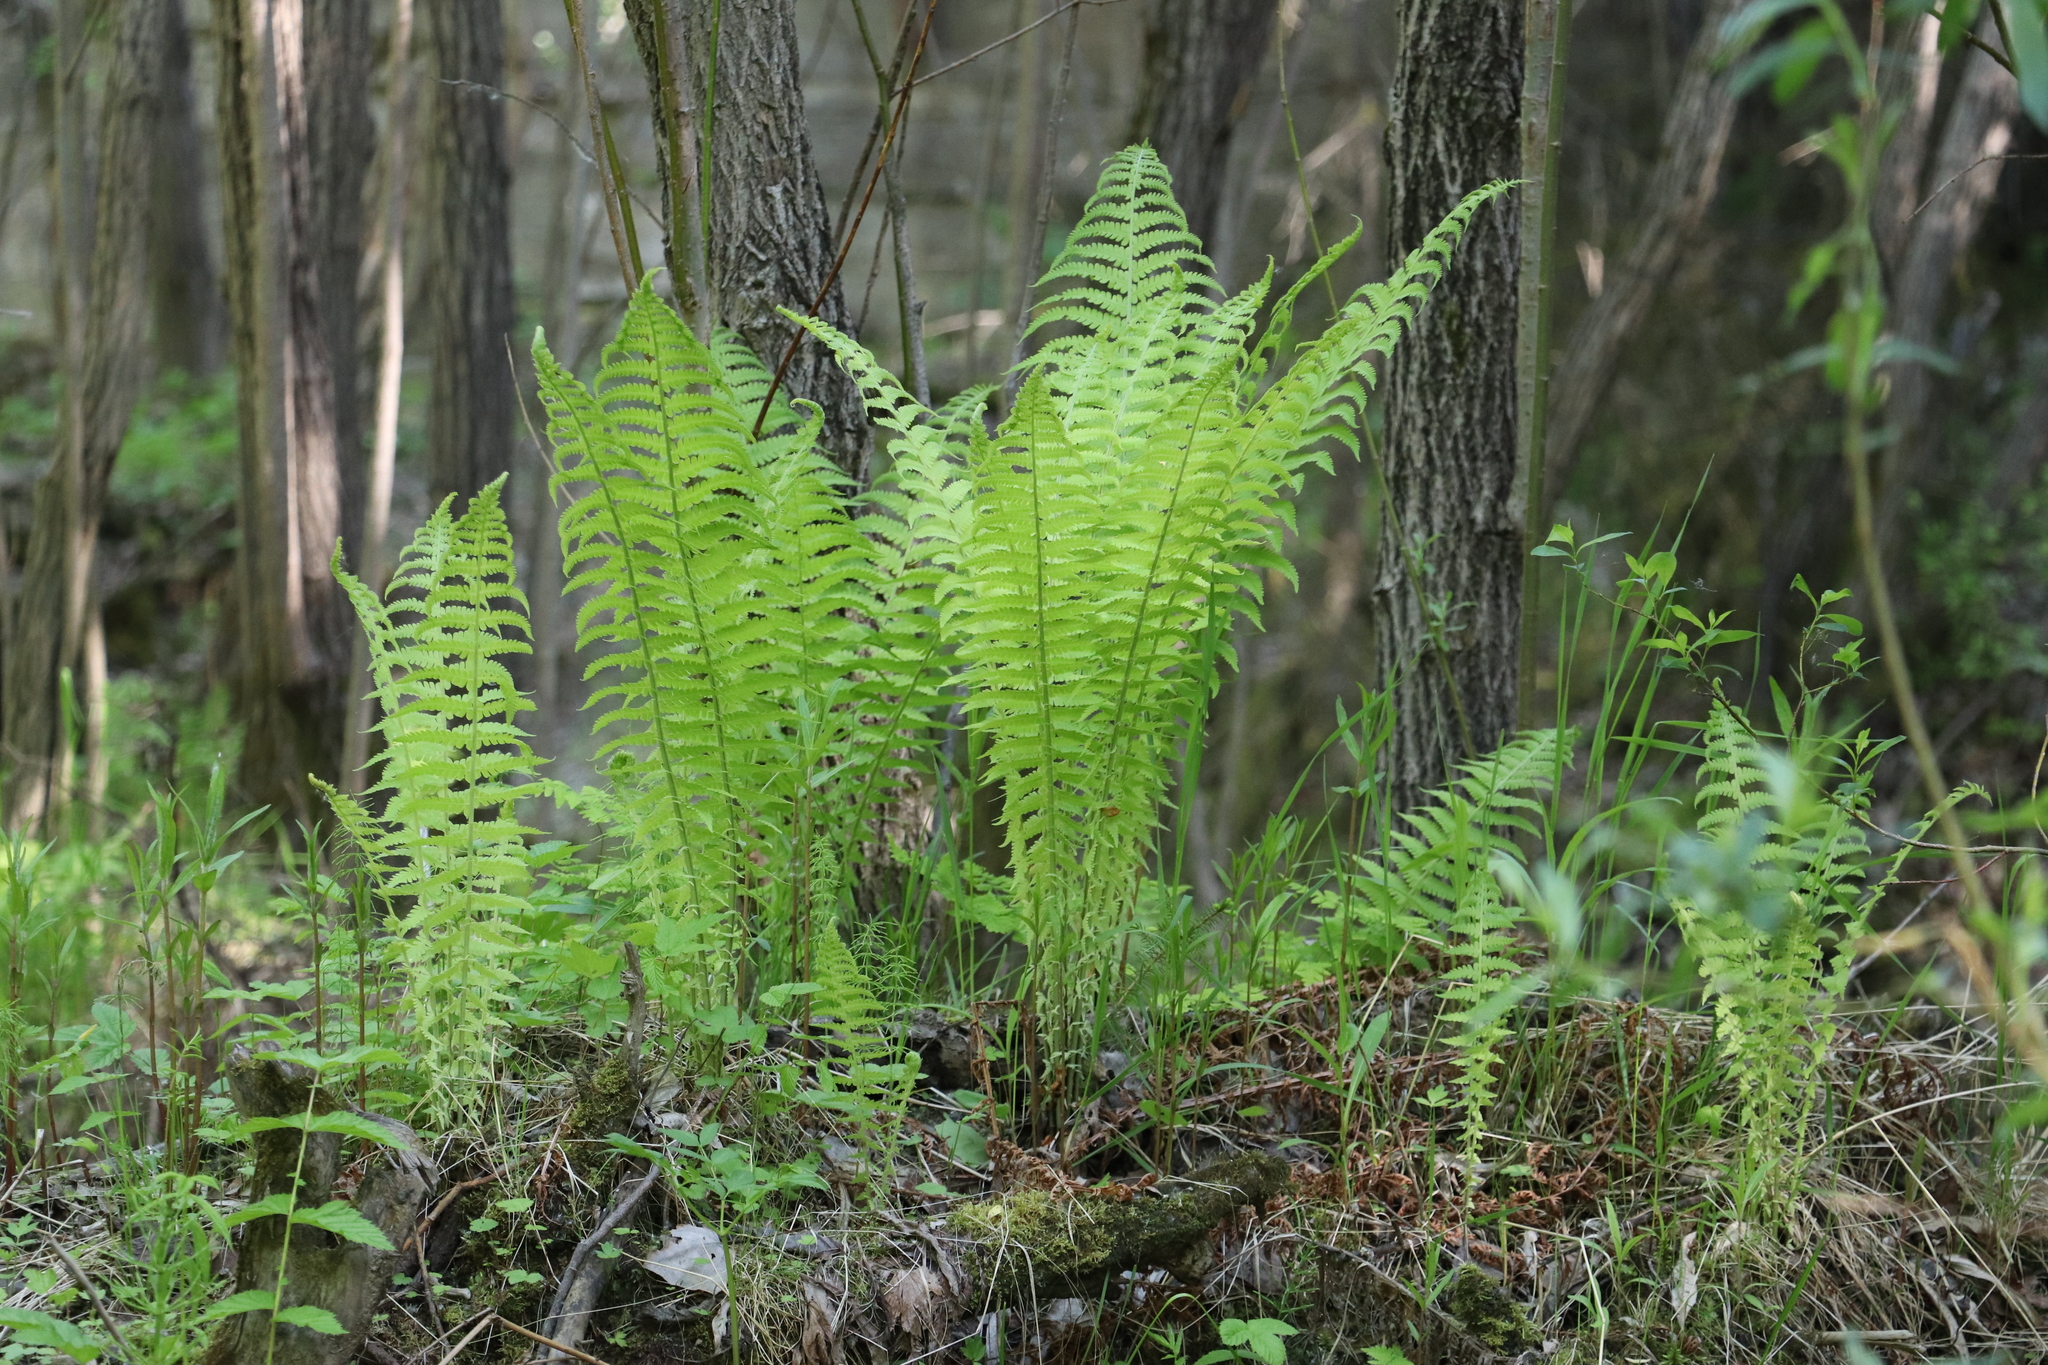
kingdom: Plantae
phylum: Tracheophyta
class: Polypodiopsida
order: Polypodiales
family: Onocleaceae
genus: Matteuccia
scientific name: Matteuccia struthiopteris
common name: Ostrich fern
